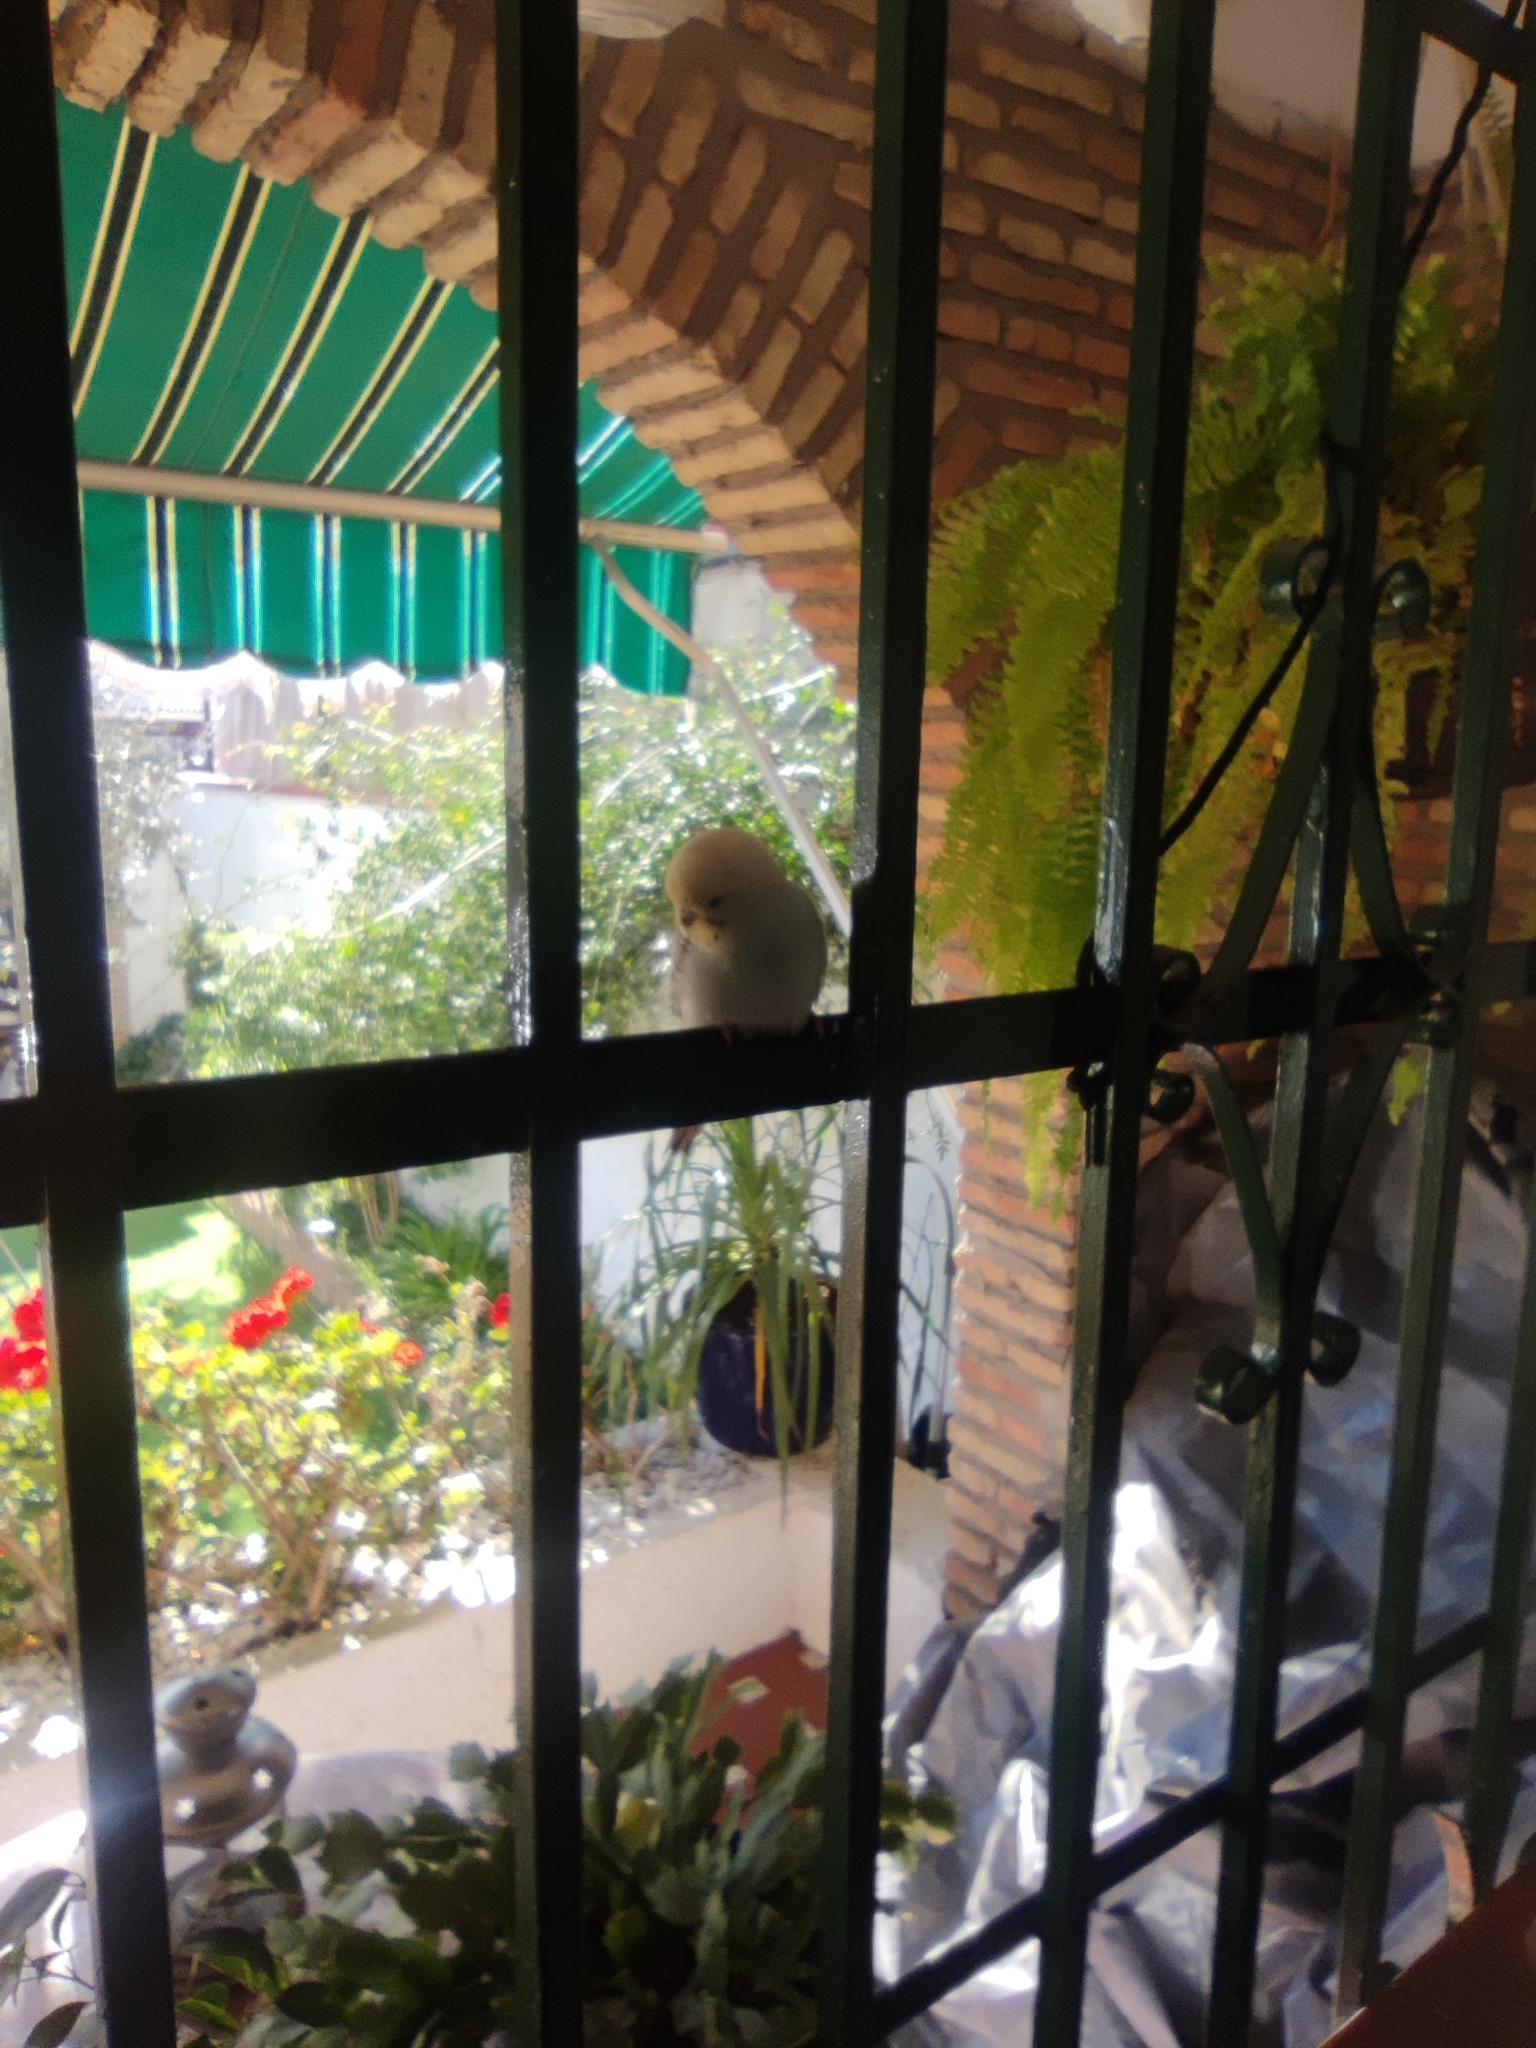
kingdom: Animalia
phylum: Chordata
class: Aves
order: Psittaciformes
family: Psittacidae
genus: Melopsittacus
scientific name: Melopsittacus undulatus
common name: Budgerigar
